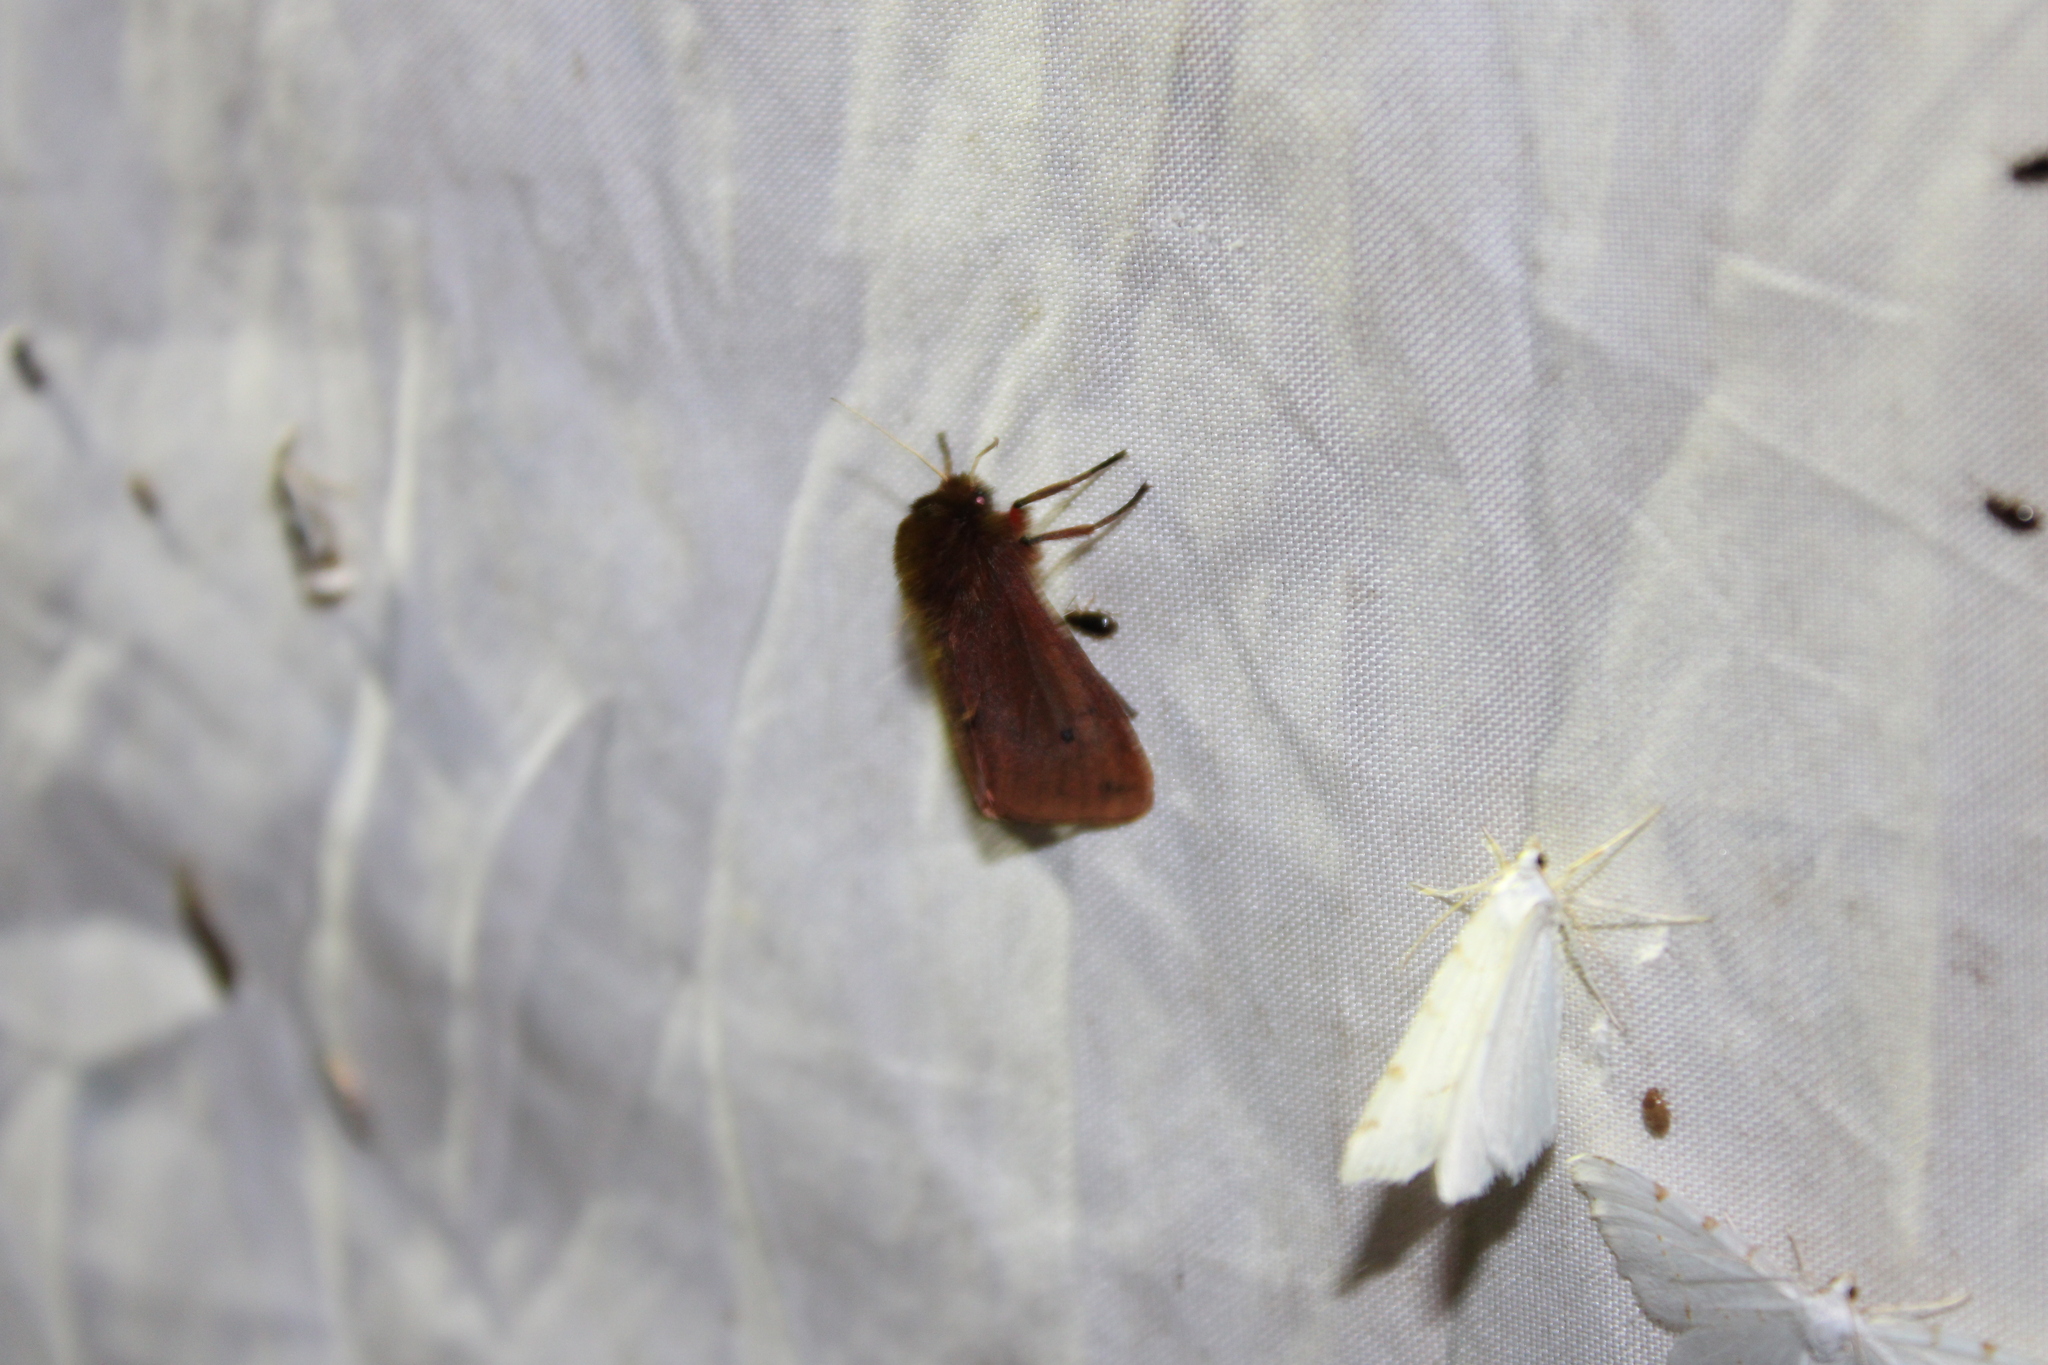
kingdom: Animalia
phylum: Arthropoda
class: Insecta
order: Lepidoptera
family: Erebidae
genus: Phragmatobia
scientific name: Phragmatobia fuliginosa
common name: Ruby tiger
